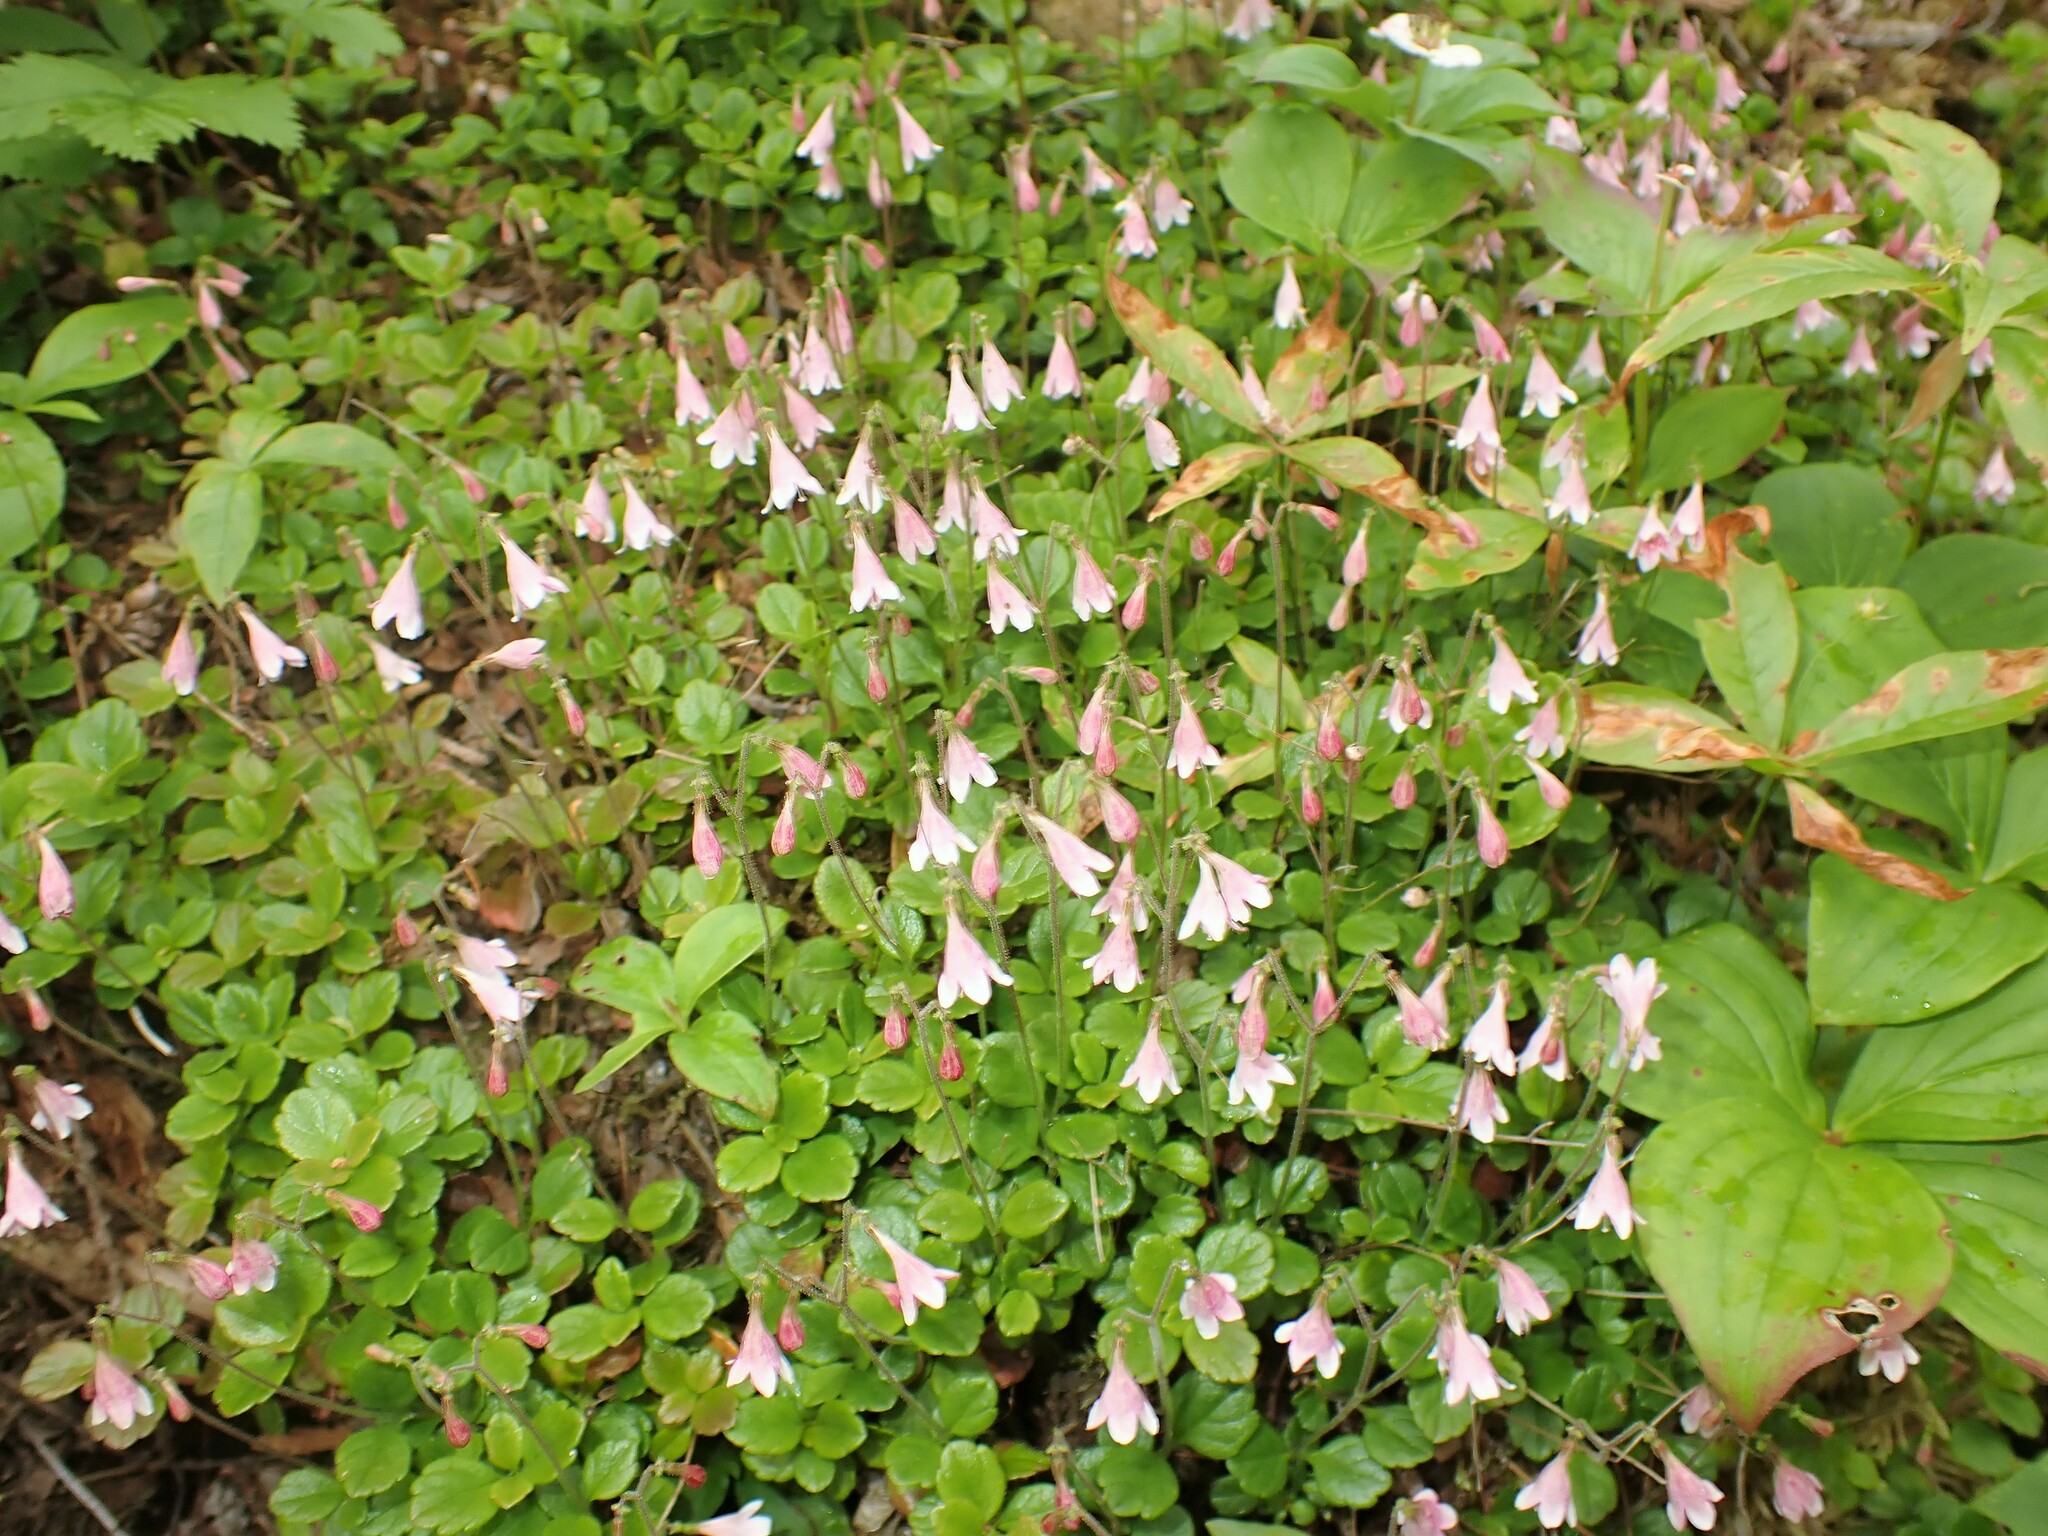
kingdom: Plantae
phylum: Tracheophyta
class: Magnoliopsida
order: Dipsacales
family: Caprifoliaceae
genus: Linnaea
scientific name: Linnaea borealis
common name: Twinflower
